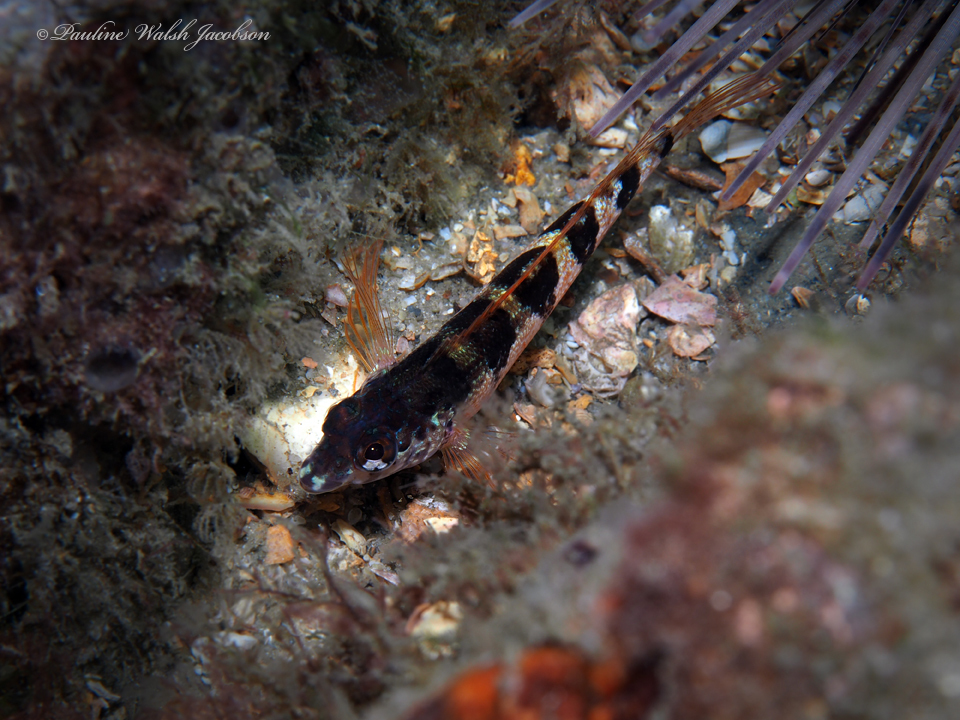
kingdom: Animalia
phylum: Chordata
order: Perciformes
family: Labrisomidae
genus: Malacoctenus
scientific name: Malacoctenus triangulatus
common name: Saddled blenny
